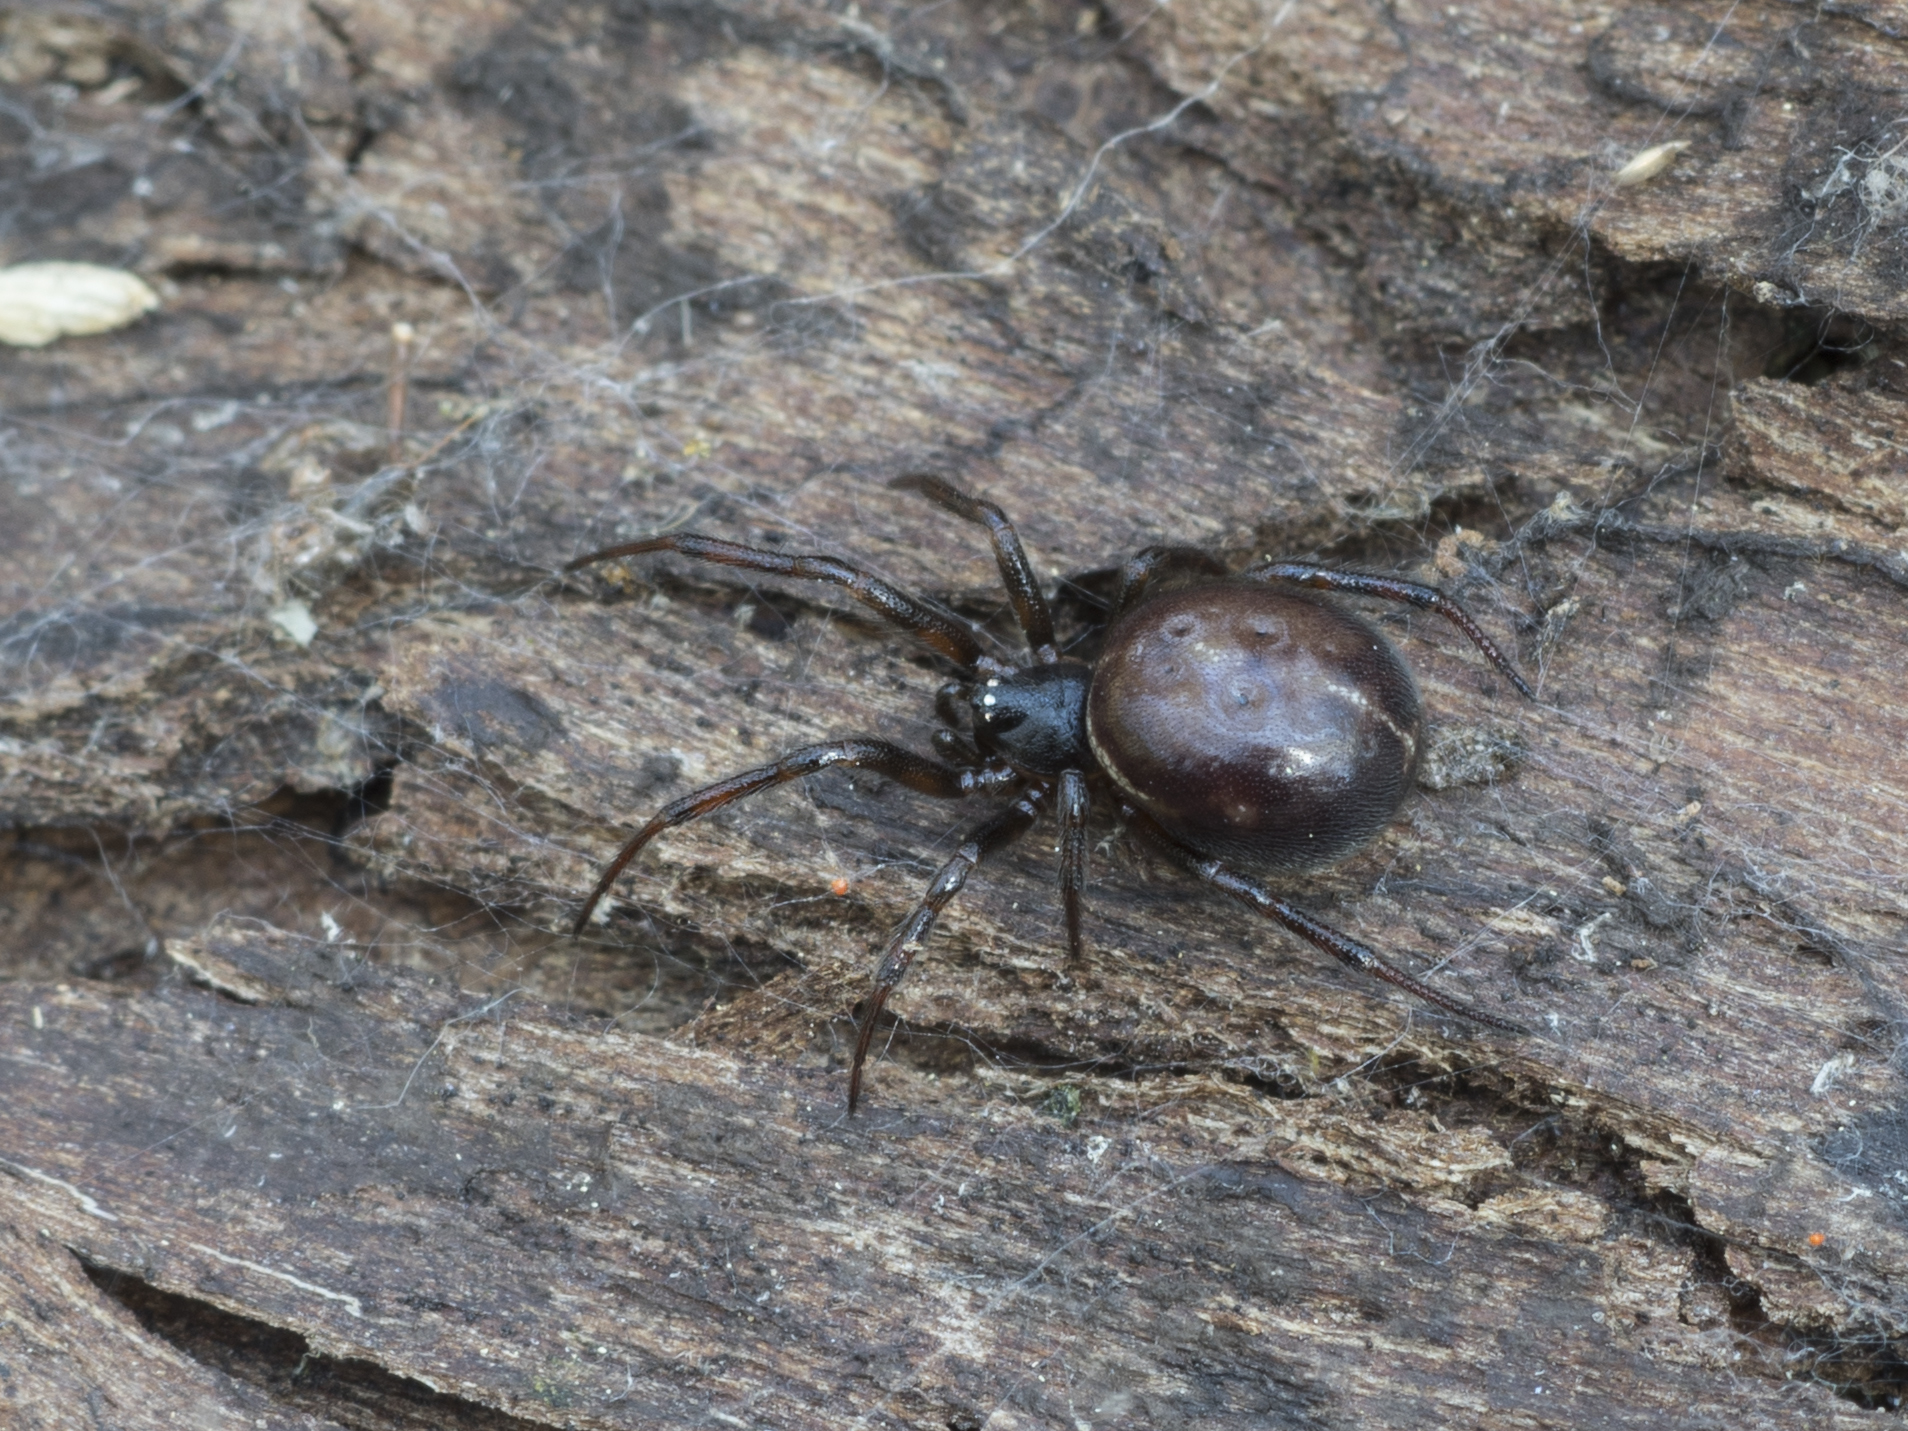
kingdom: Animalia
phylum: Arthropoda
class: Arachnida
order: Araneae
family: Theridiidae
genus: Steatoda
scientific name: Steatoda bipunctata
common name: False widow
